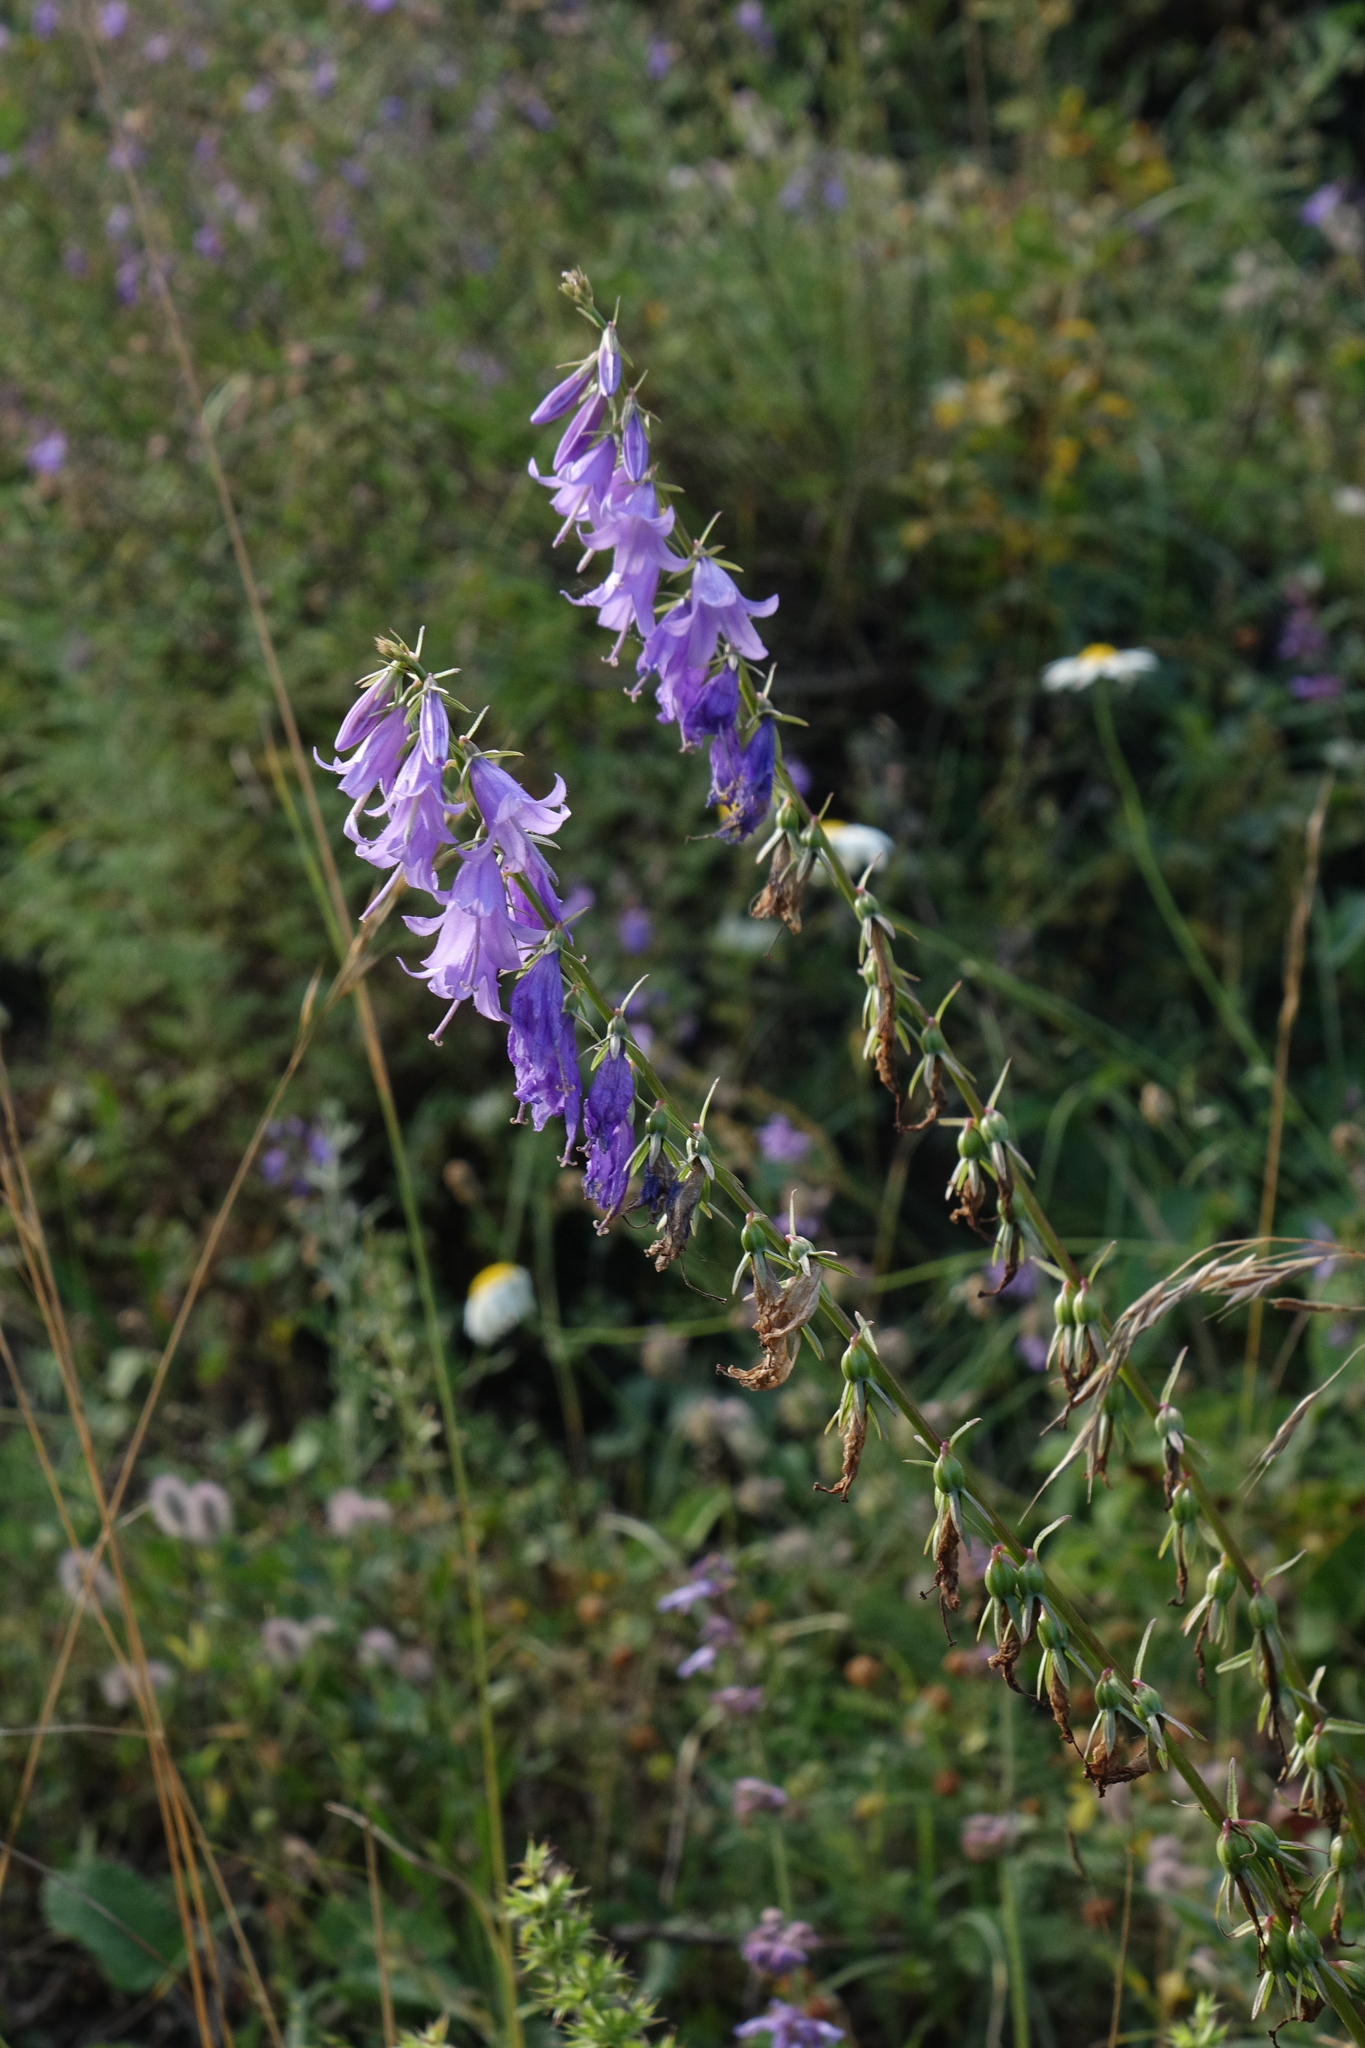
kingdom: Plantae
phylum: Tracheophyta
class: Magnoliopsida
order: Asterales
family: Campanulaceae
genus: Campanula
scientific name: Campanula rapunculoides
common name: Creeping bellflower
